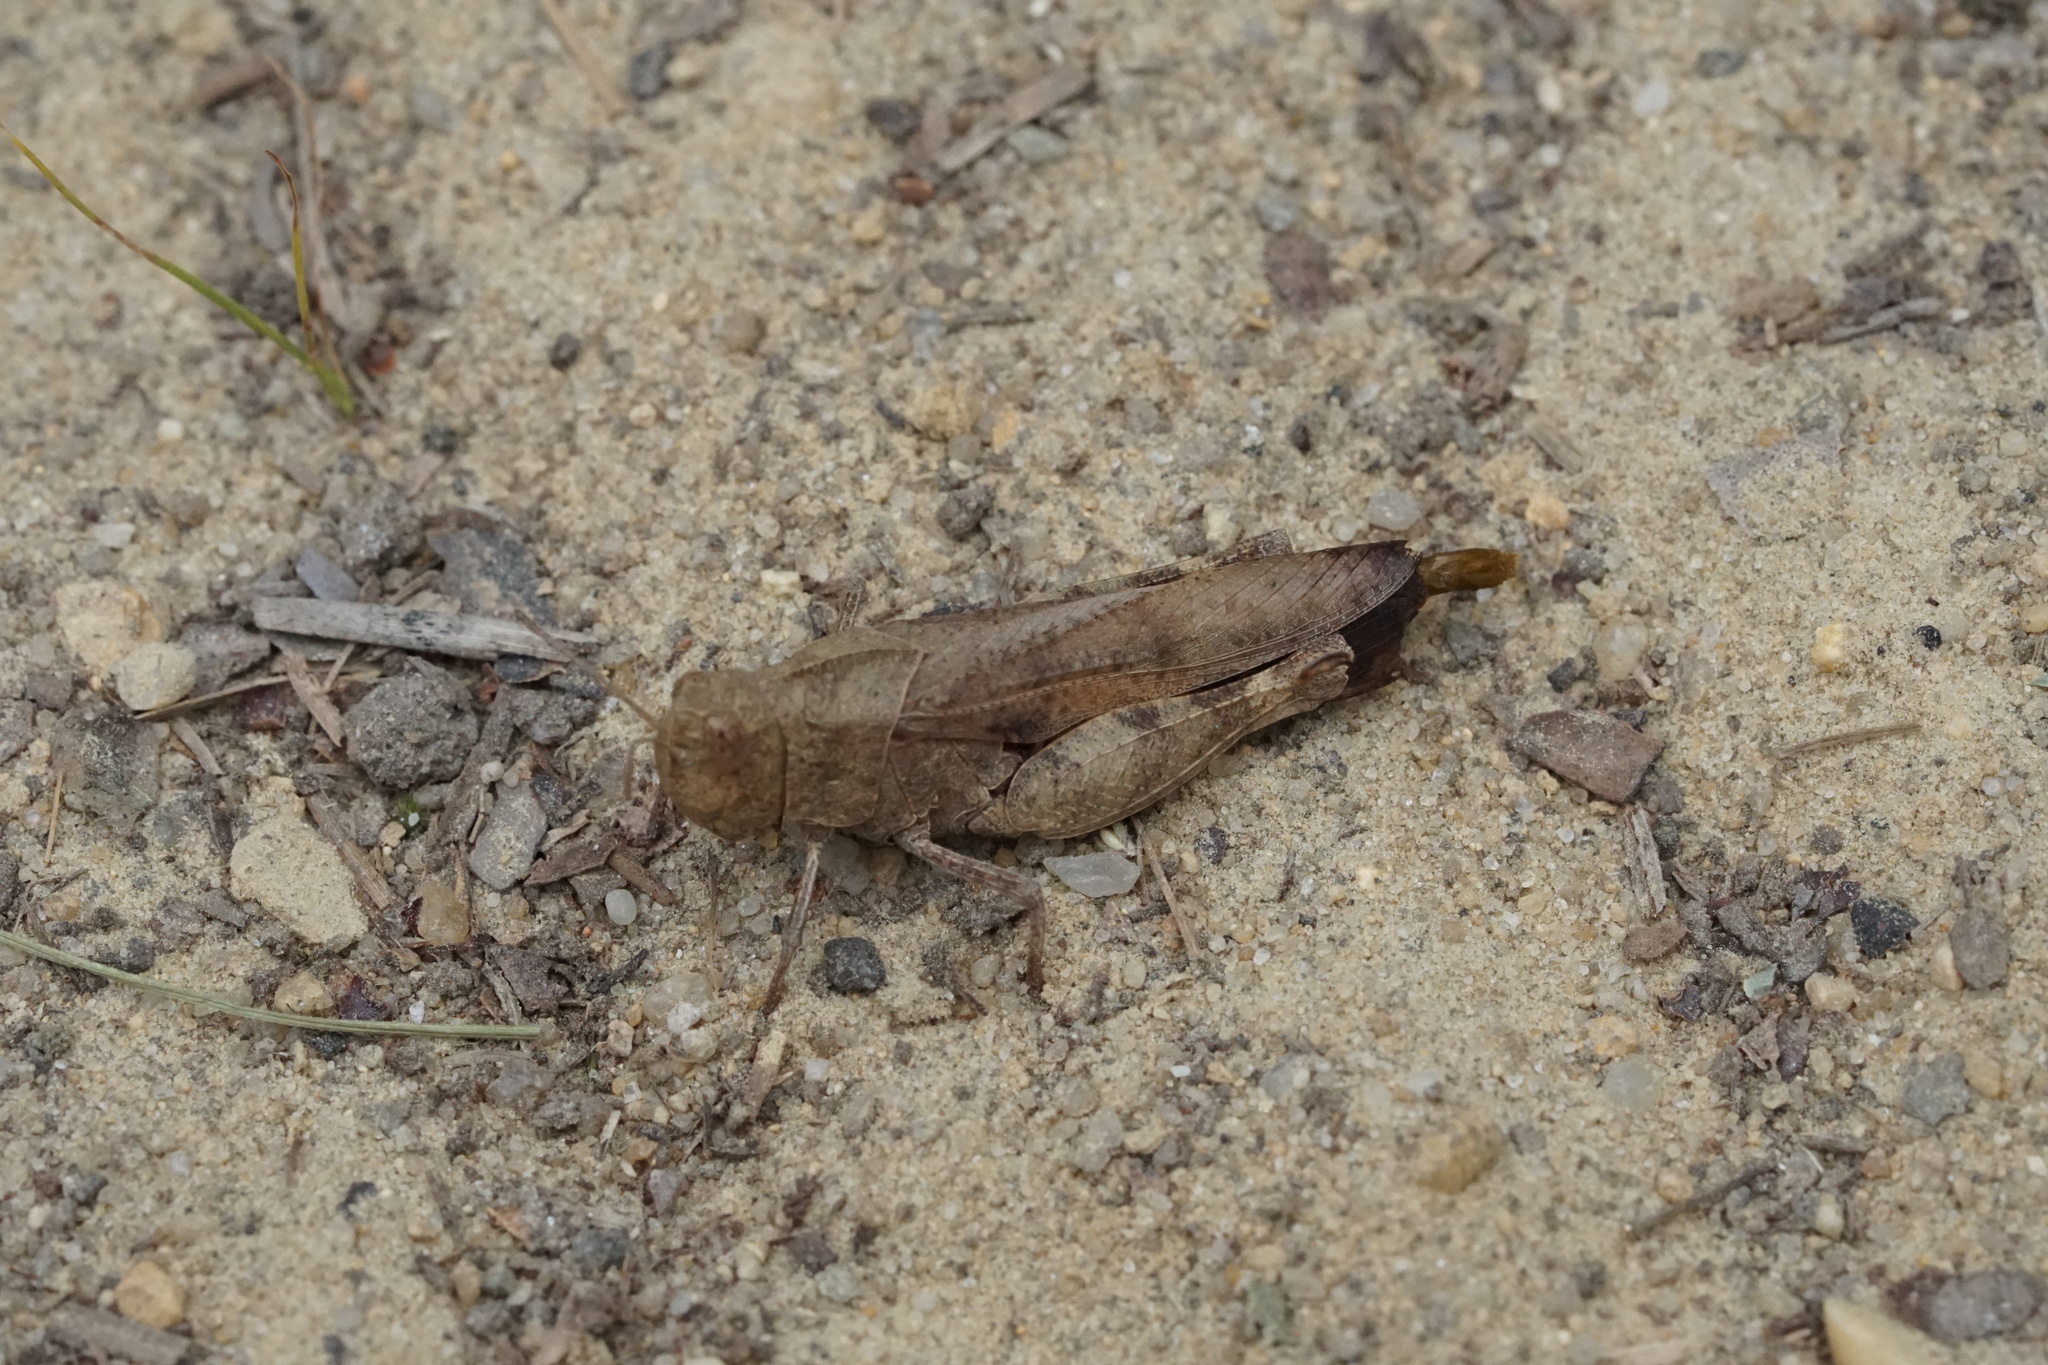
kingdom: Animalia
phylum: Arthropoda
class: Insecta
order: Orthoptera
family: Acrididae
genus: Arphia
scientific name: Arphia sulphurea
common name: Spring yellow-winged locust
